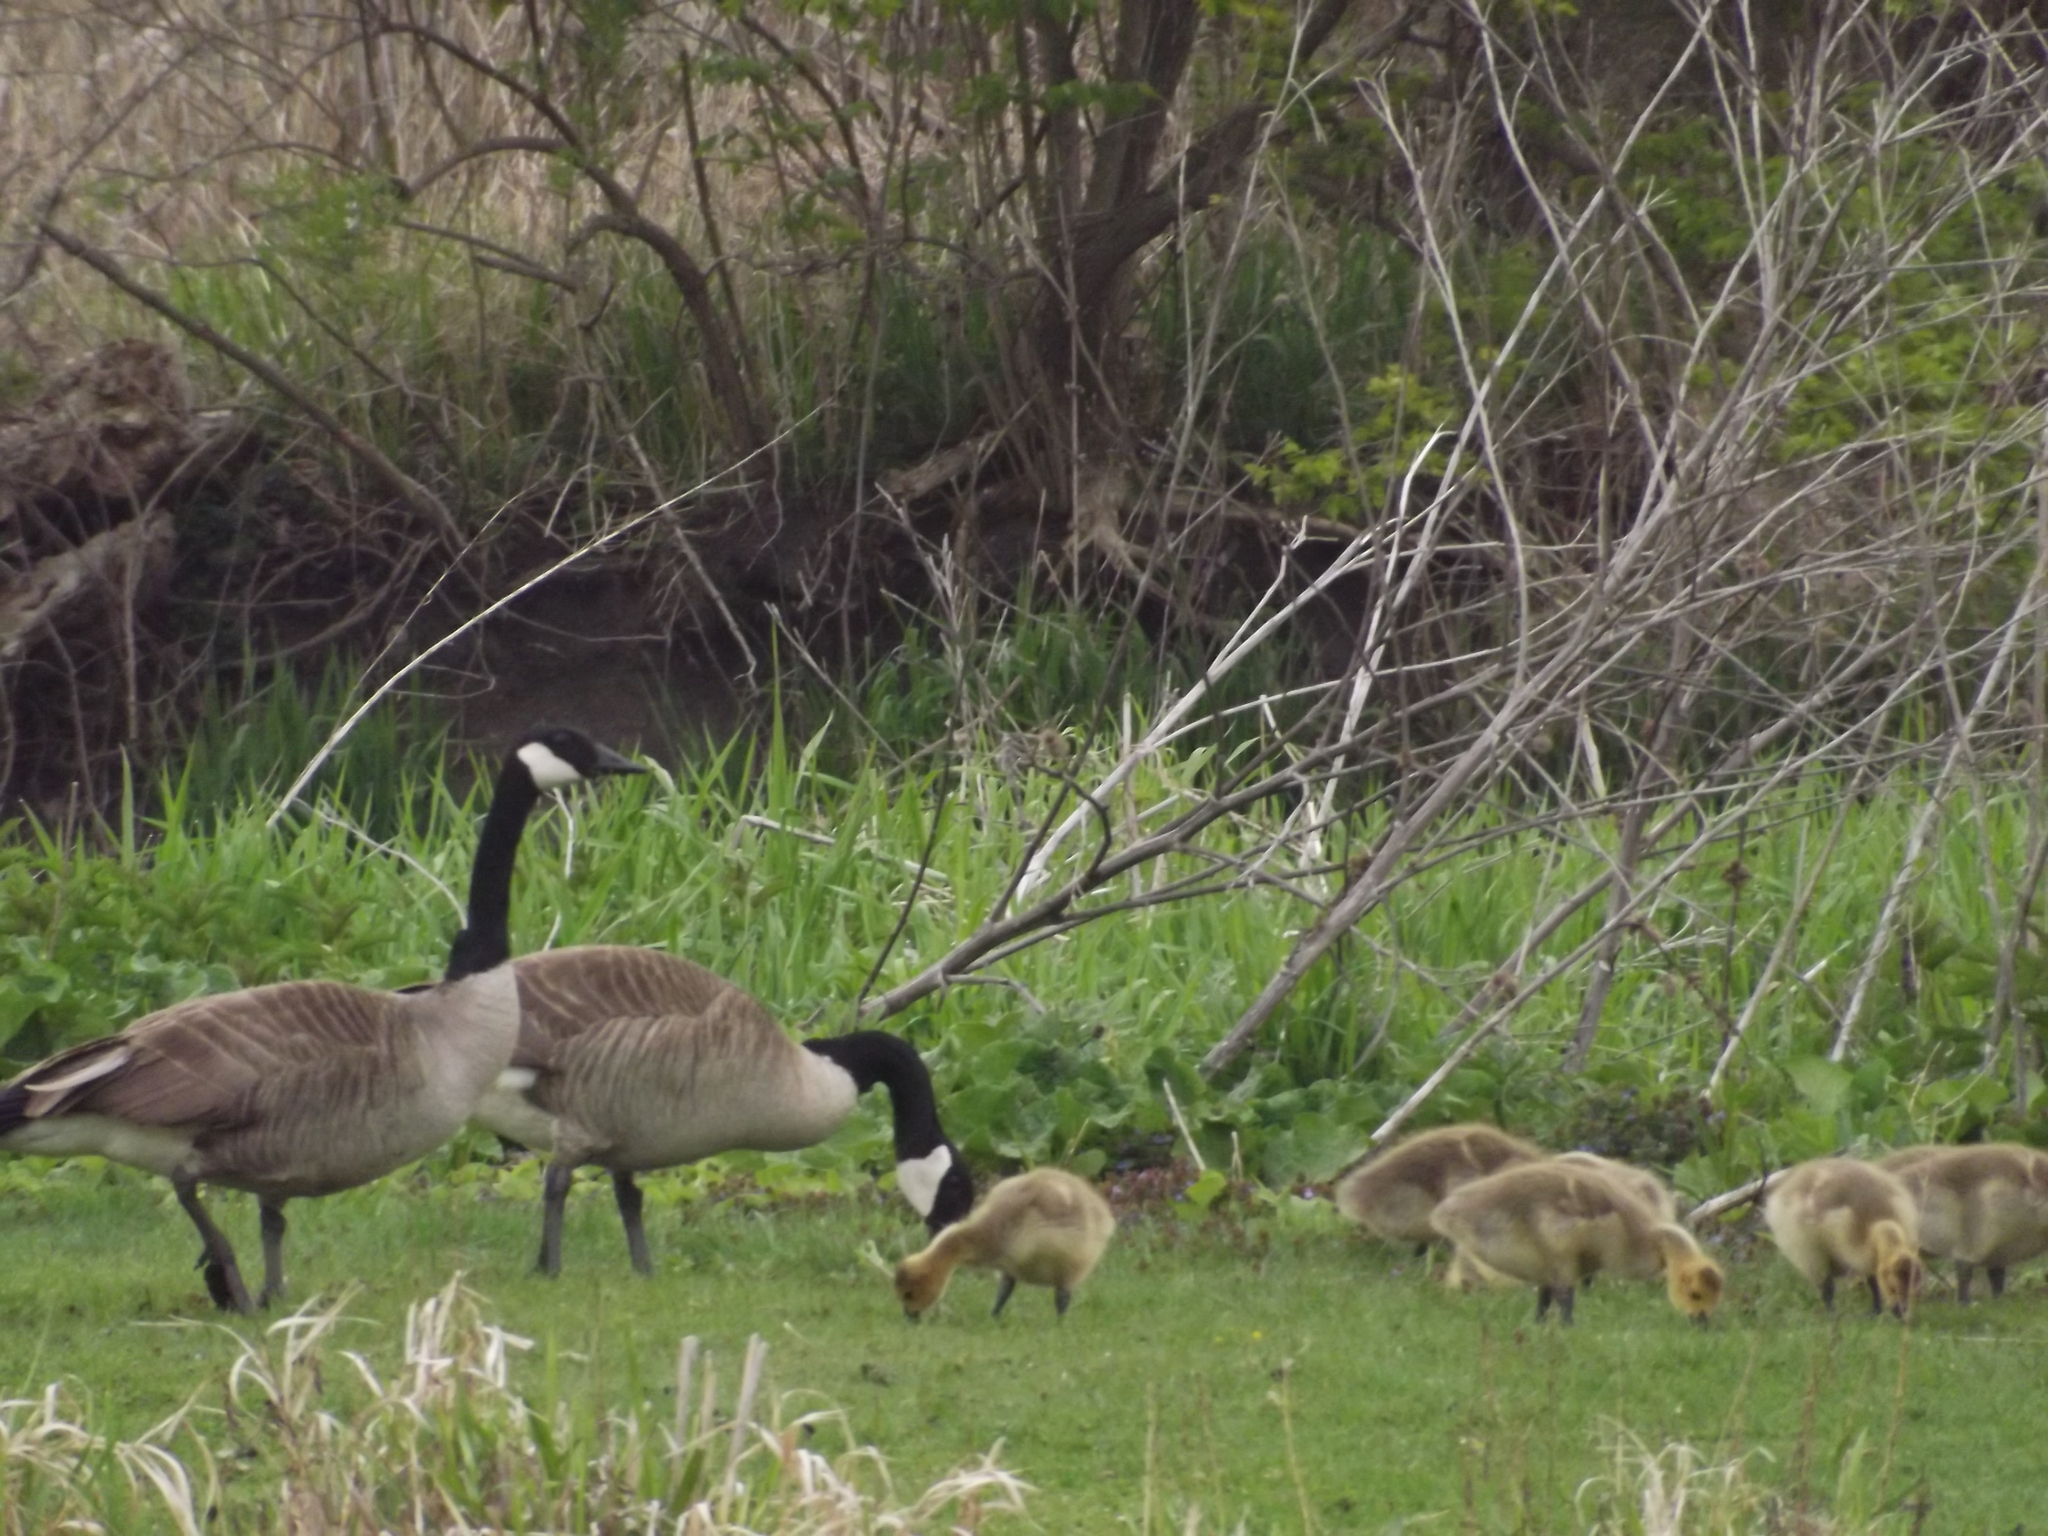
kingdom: Animalia
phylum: Chordata
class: Aves
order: Anseriformes
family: Anatidae
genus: Branta
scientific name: Branta canadensis
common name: Canada goose
